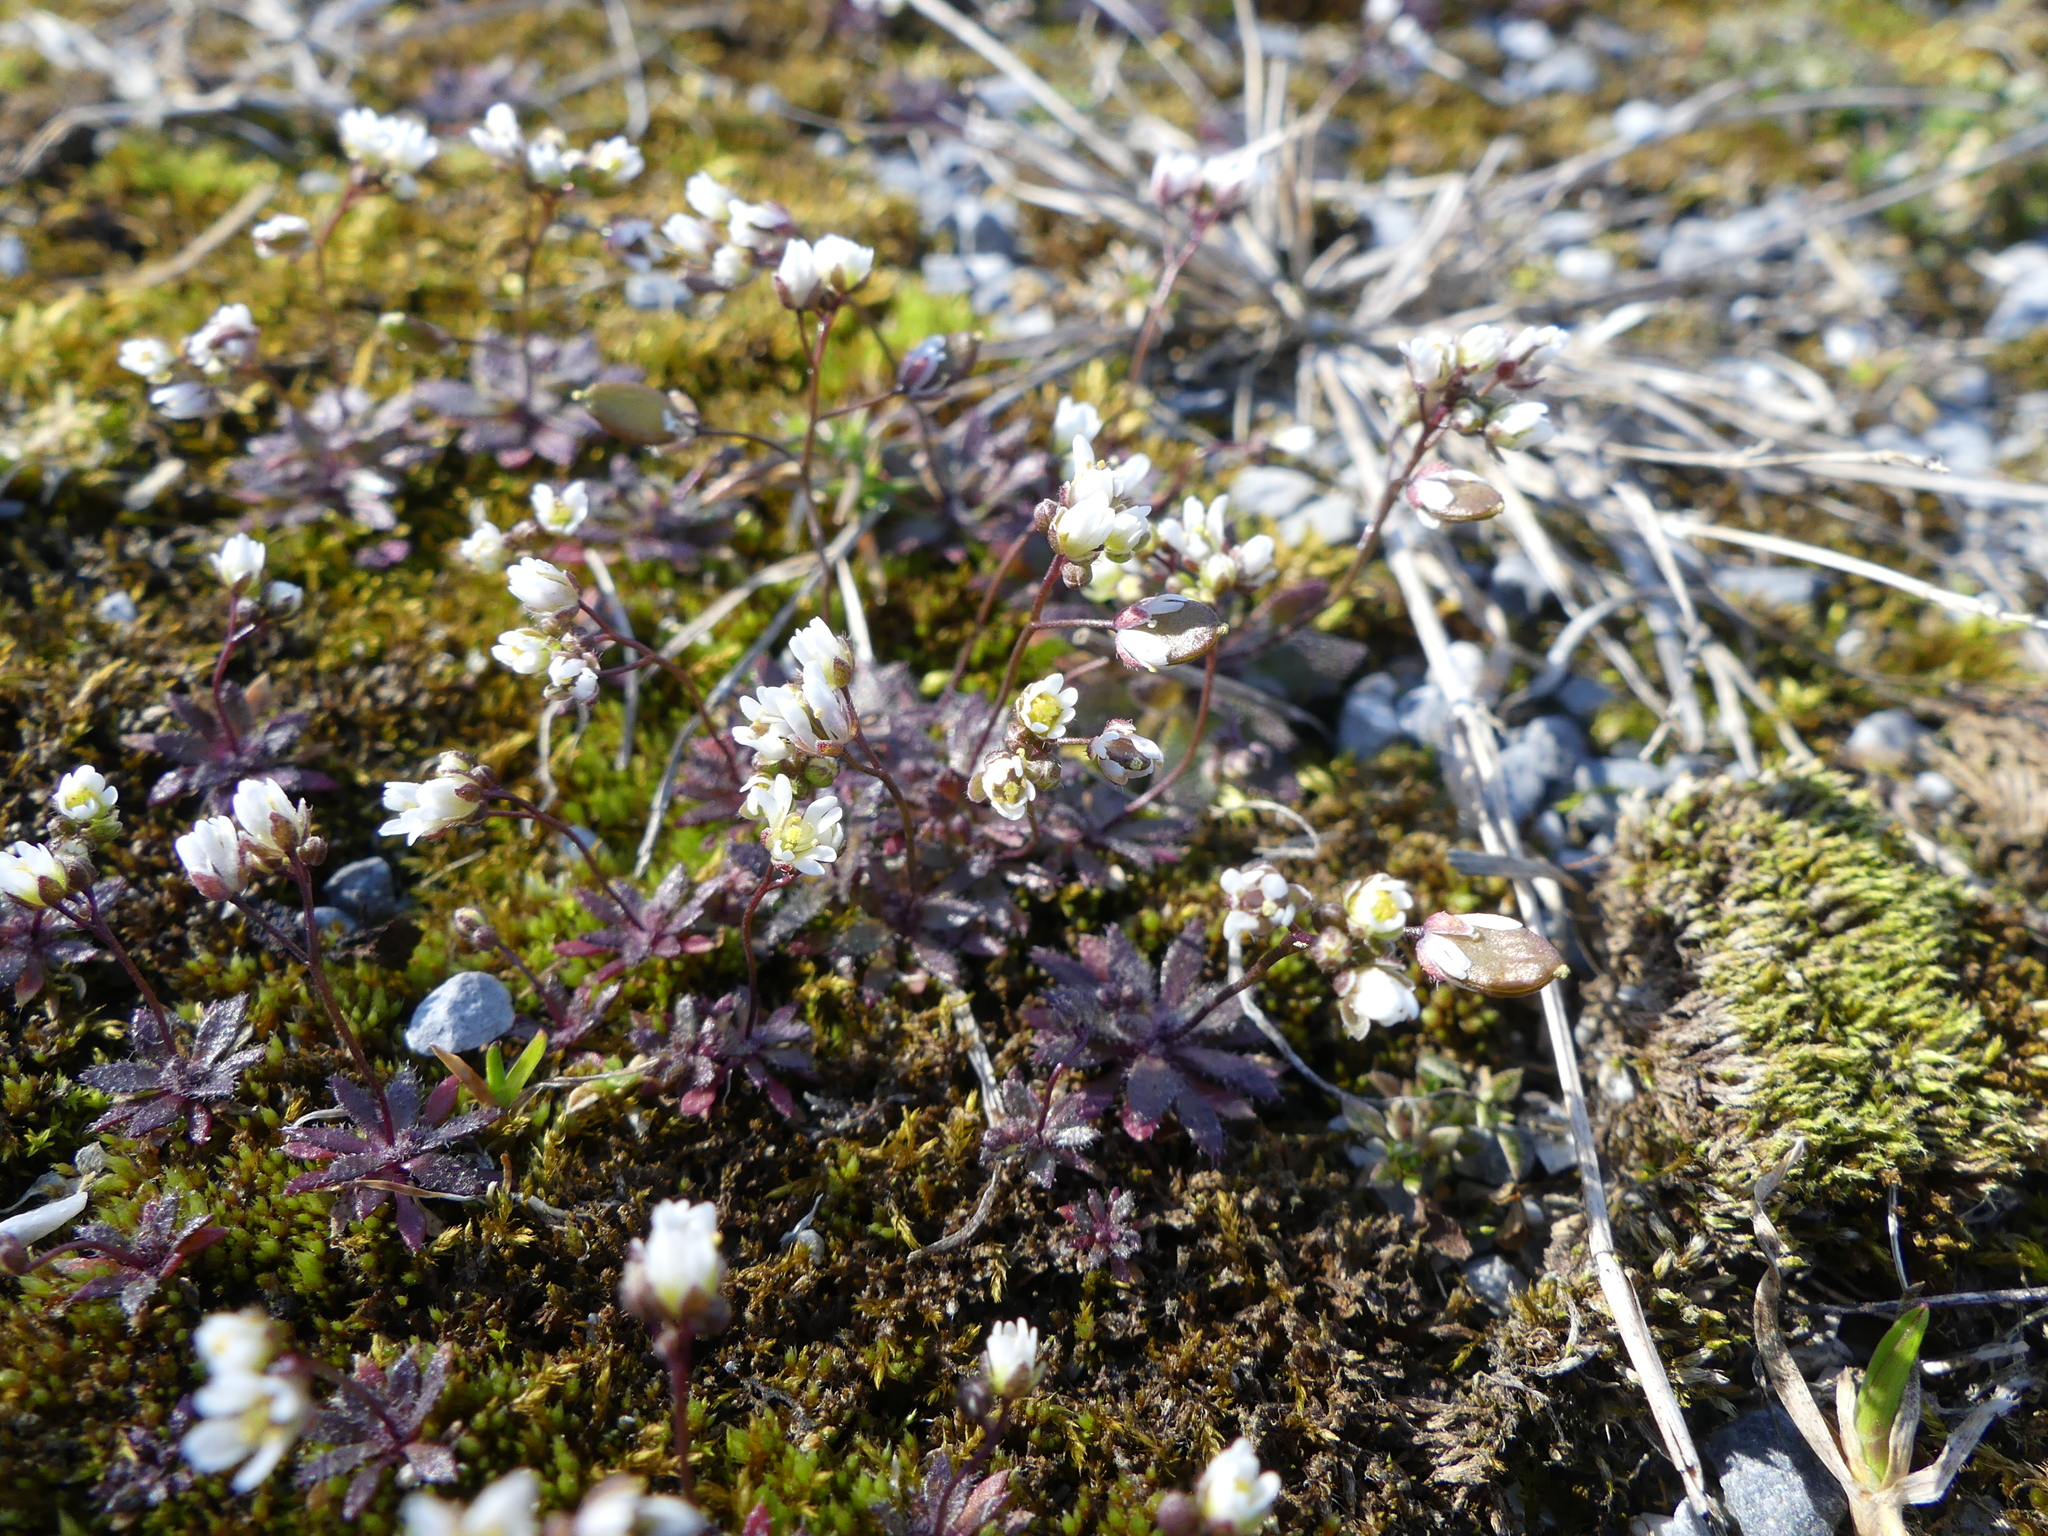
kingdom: Plantae
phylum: Tracheophyta
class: Magnoliopsida
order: Brassicales
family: Brassicaceae
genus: Draba
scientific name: Draba verna
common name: Spring draba
